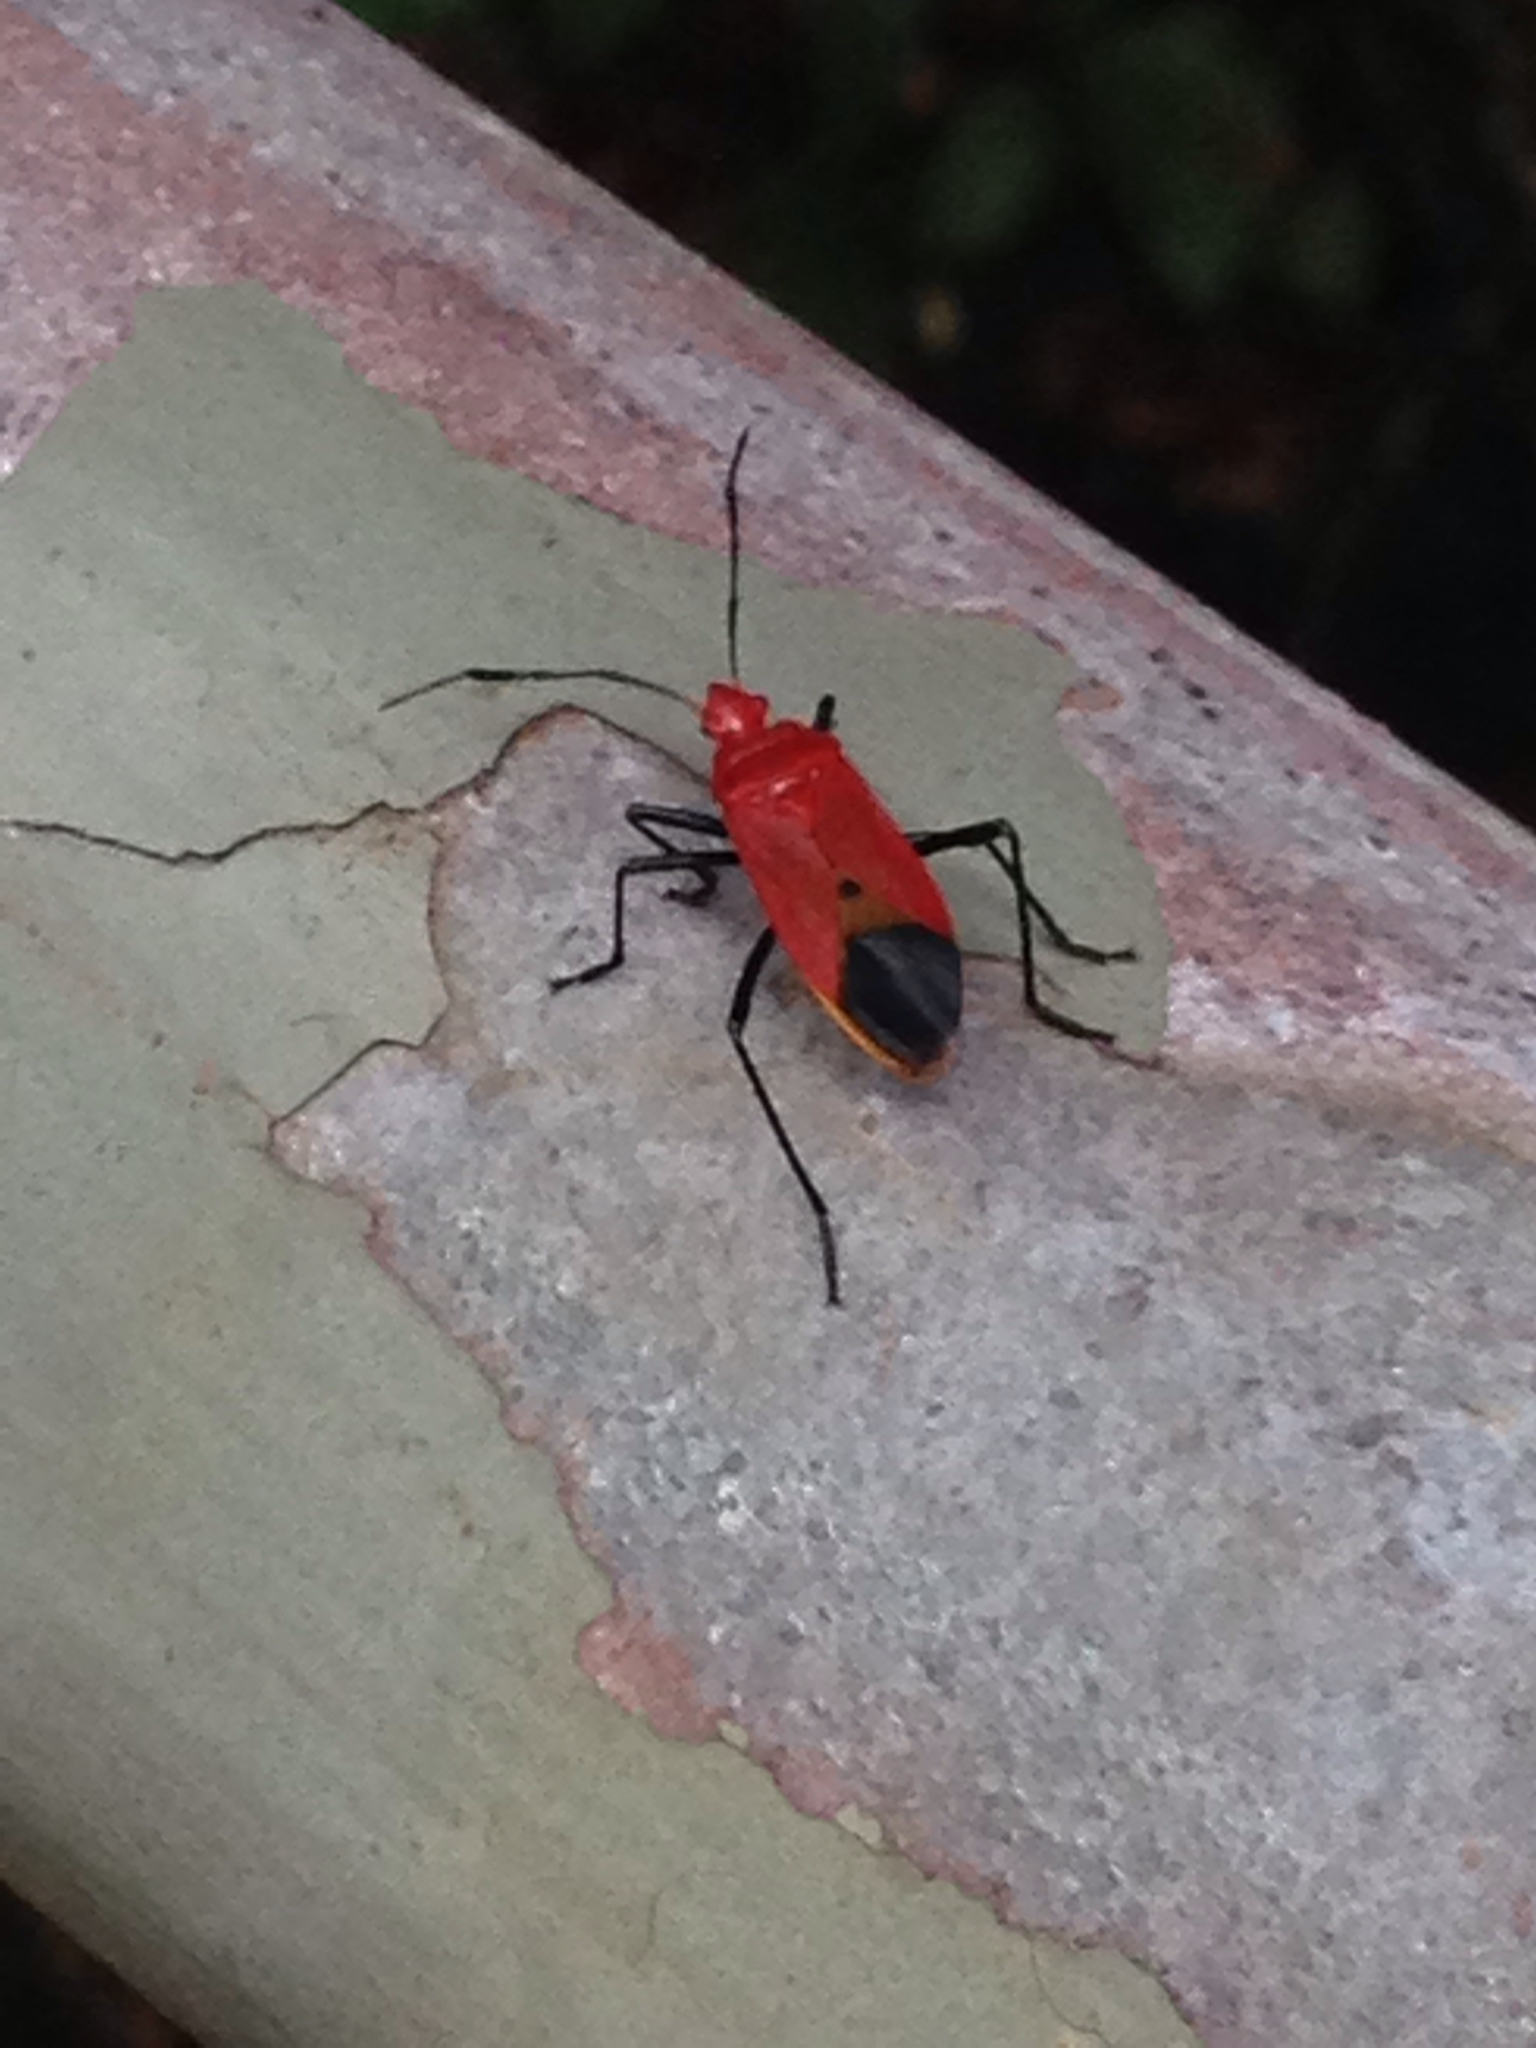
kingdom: Animalia
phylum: Arthropoda
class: Insecta
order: Hemiptera
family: Pyrrhocoridae
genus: Dindymus
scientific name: Dindymus
